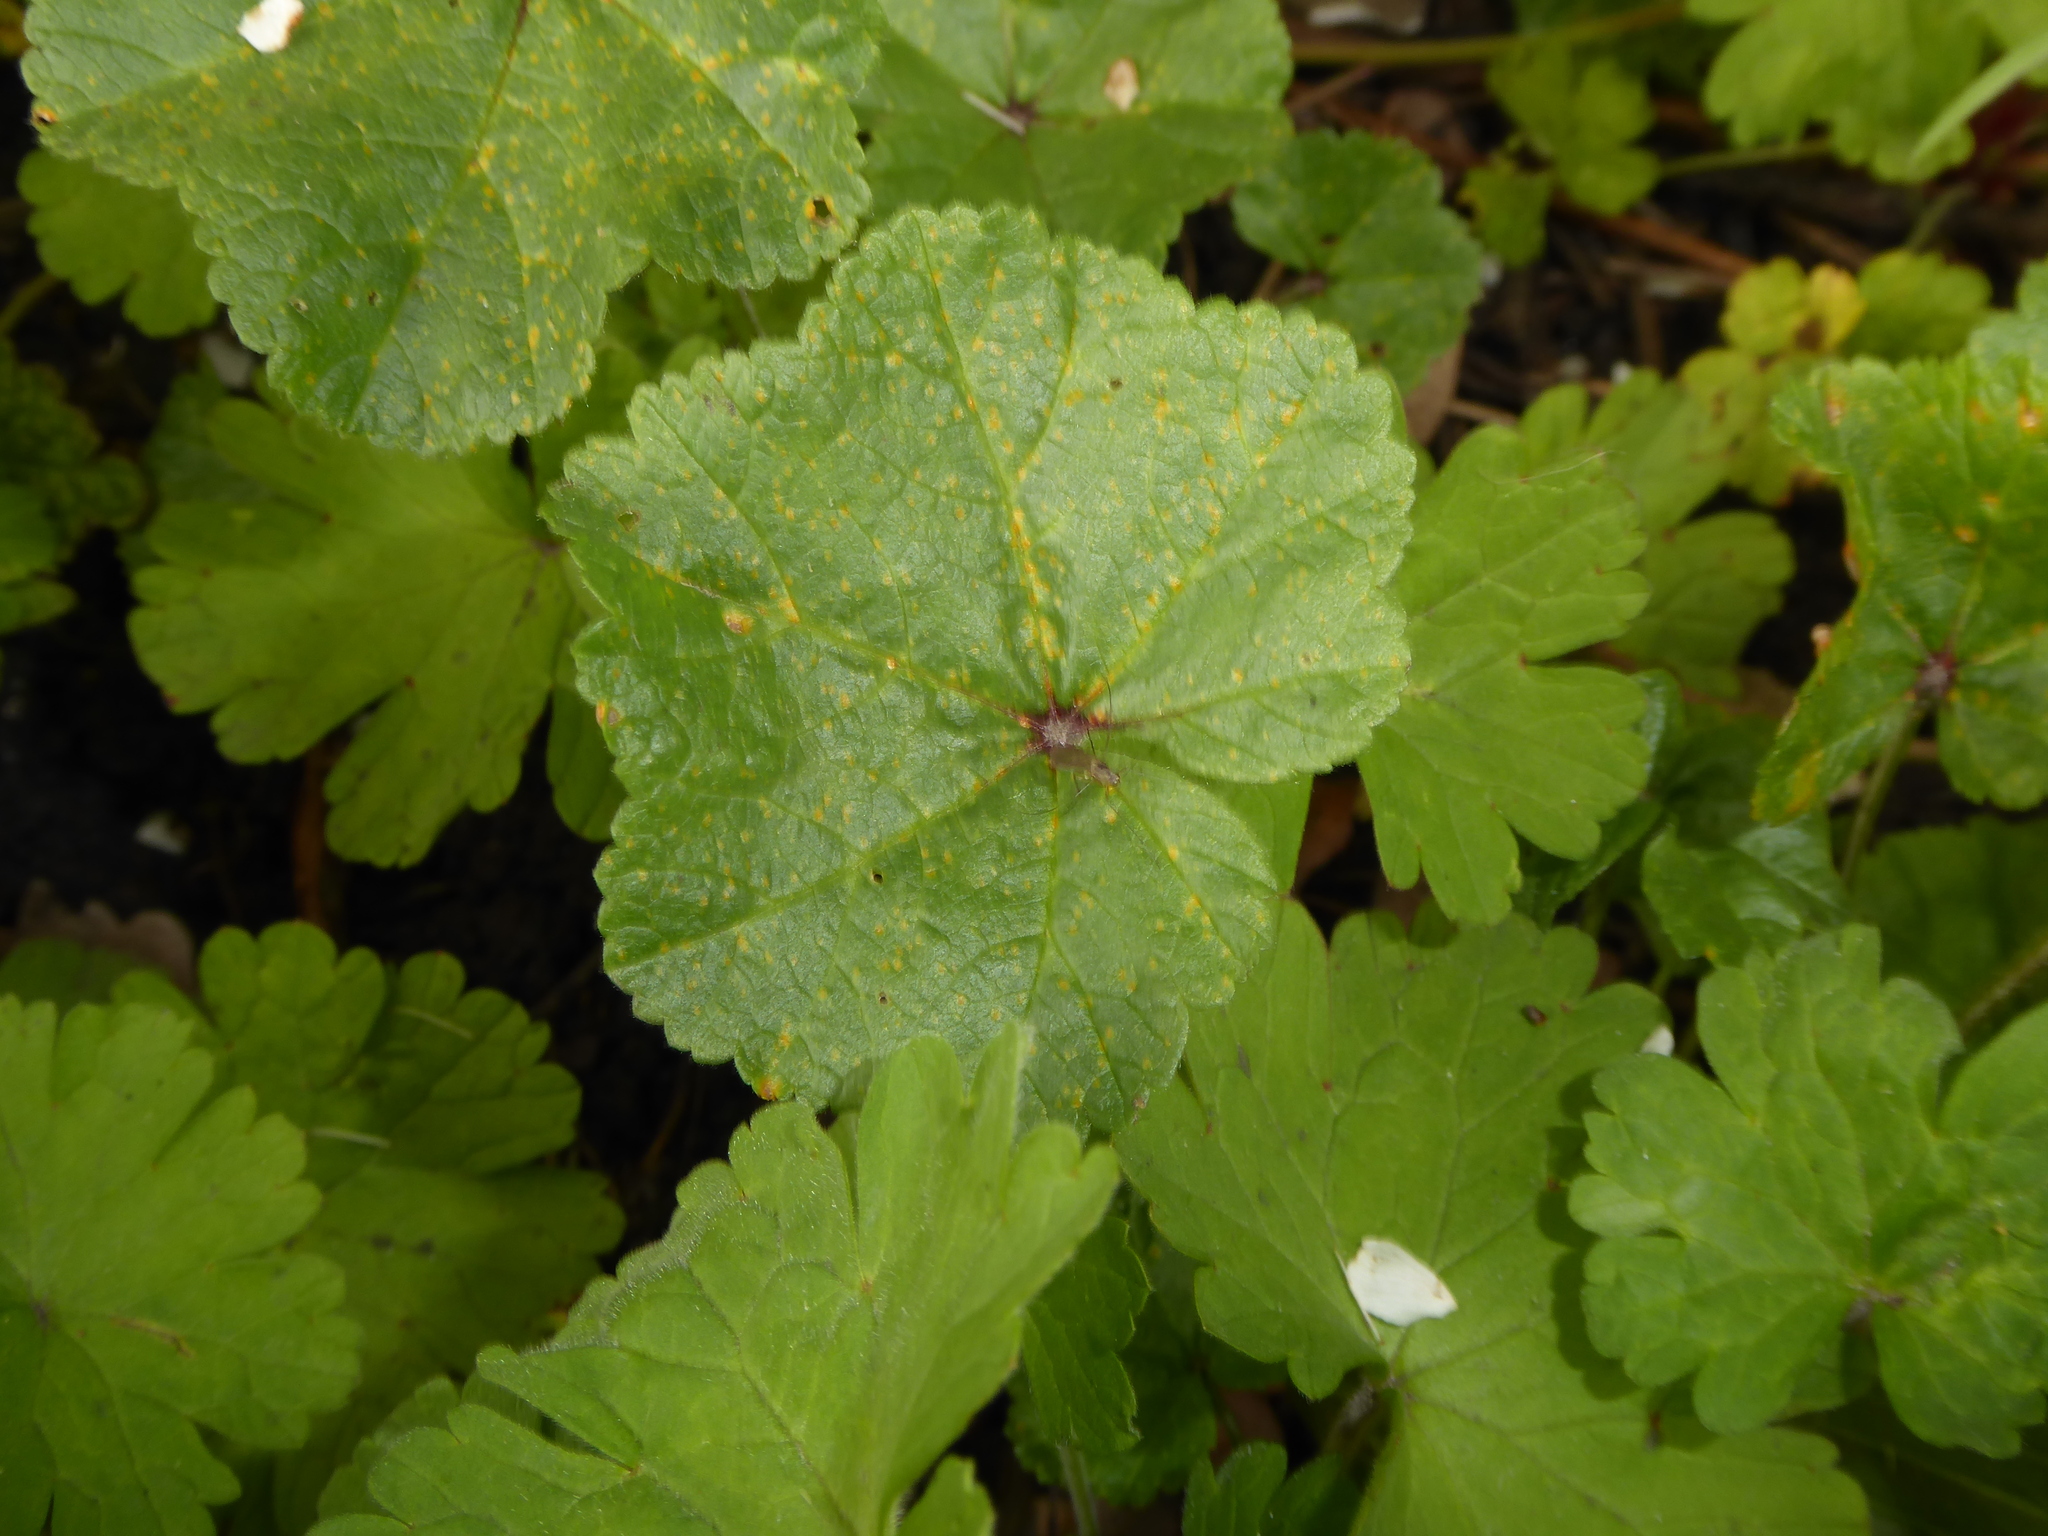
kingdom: Fungi
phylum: Basidiomycota
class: Pucciniomycetes
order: Pucciniales
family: Pucciniaceae
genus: Puccinia
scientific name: Puccinia malvacearum
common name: Hollyhock rust
